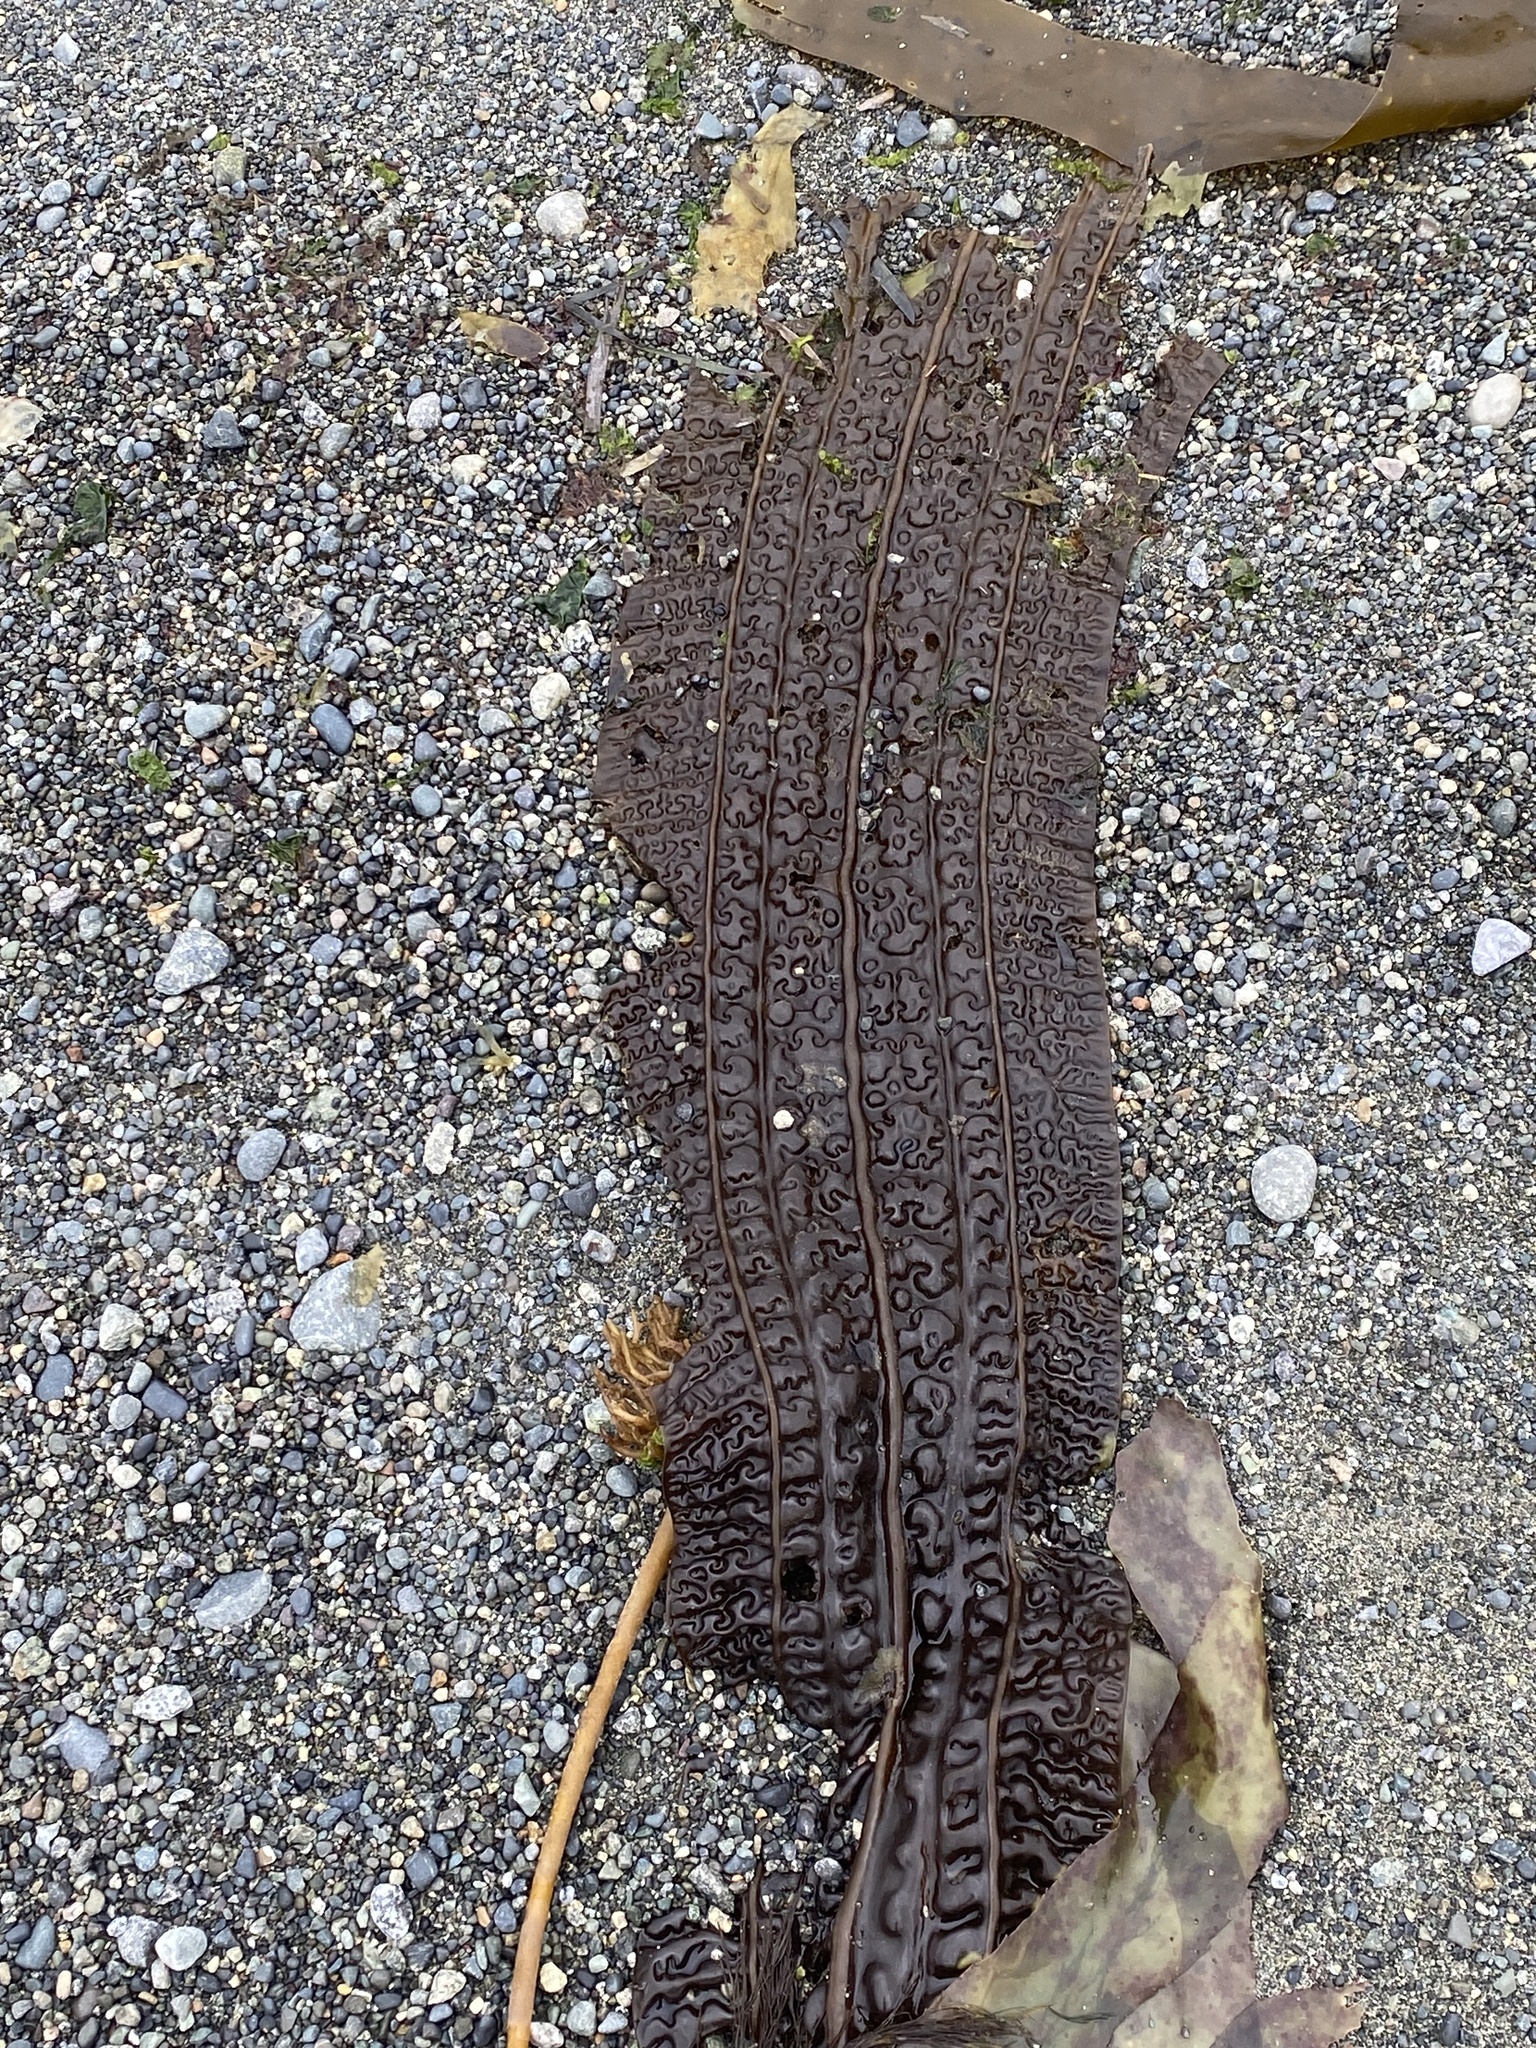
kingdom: Chromista
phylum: Ochrophyta
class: Phaeophyceae
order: Laminariales
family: Costariaceae
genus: Costaria
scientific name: Costaria costata
